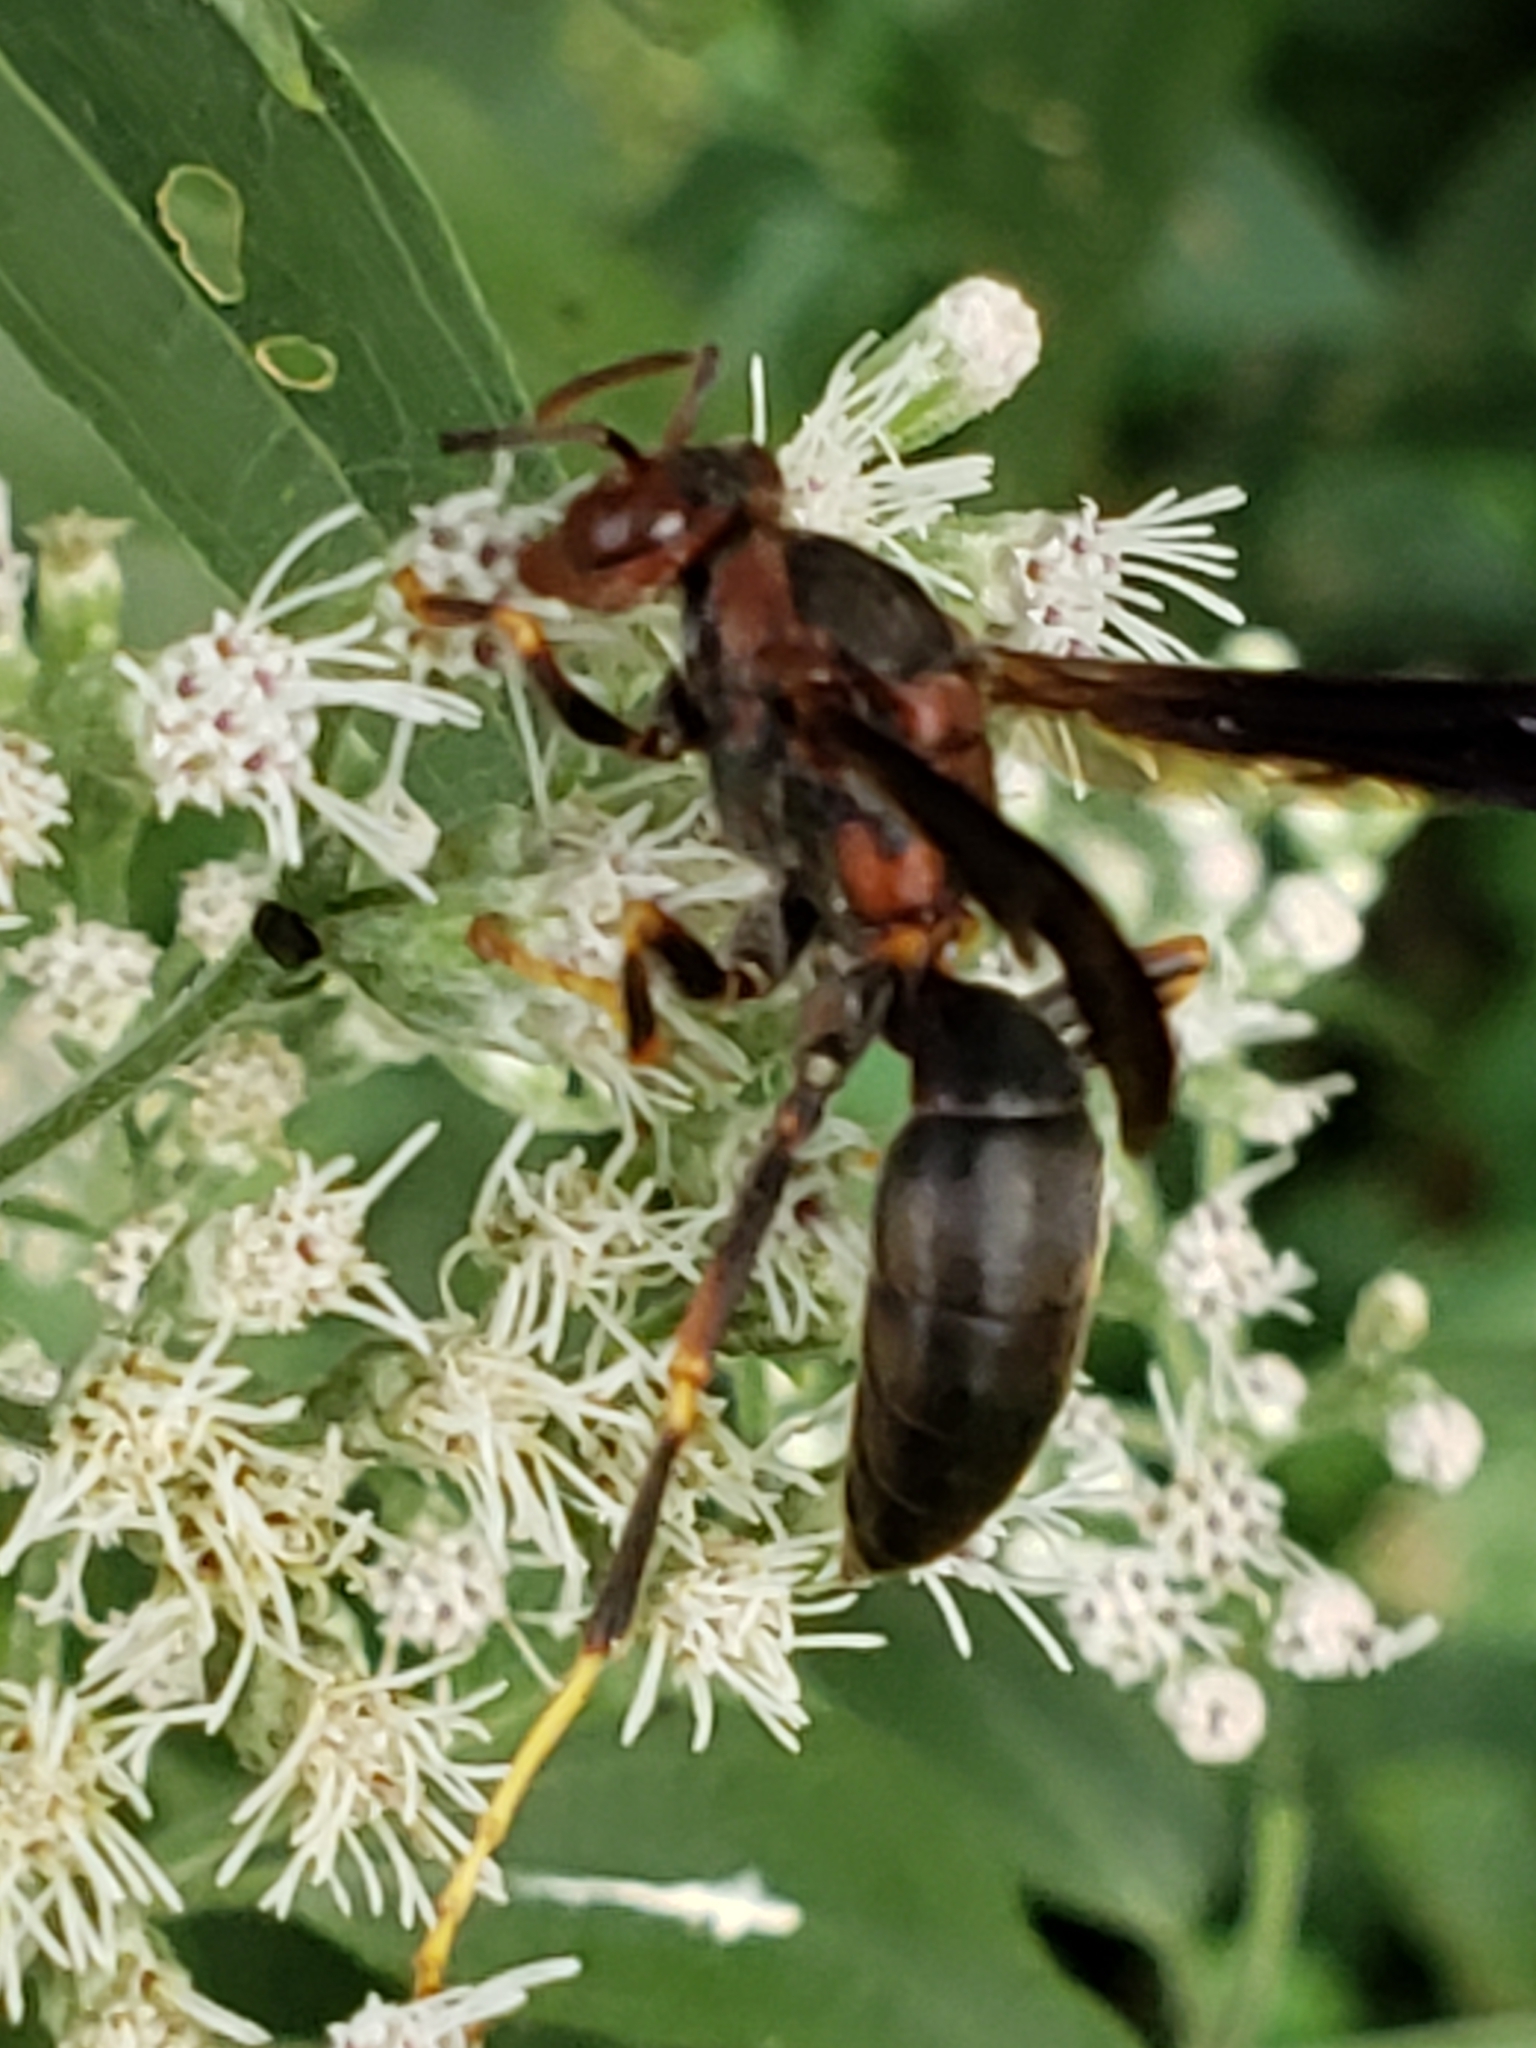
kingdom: Animalia
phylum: Arthropoda
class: Insecta
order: Hymenoptera
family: Eumenidae
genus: Polistes
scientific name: Polistes metricus
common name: Metric paper wasp
